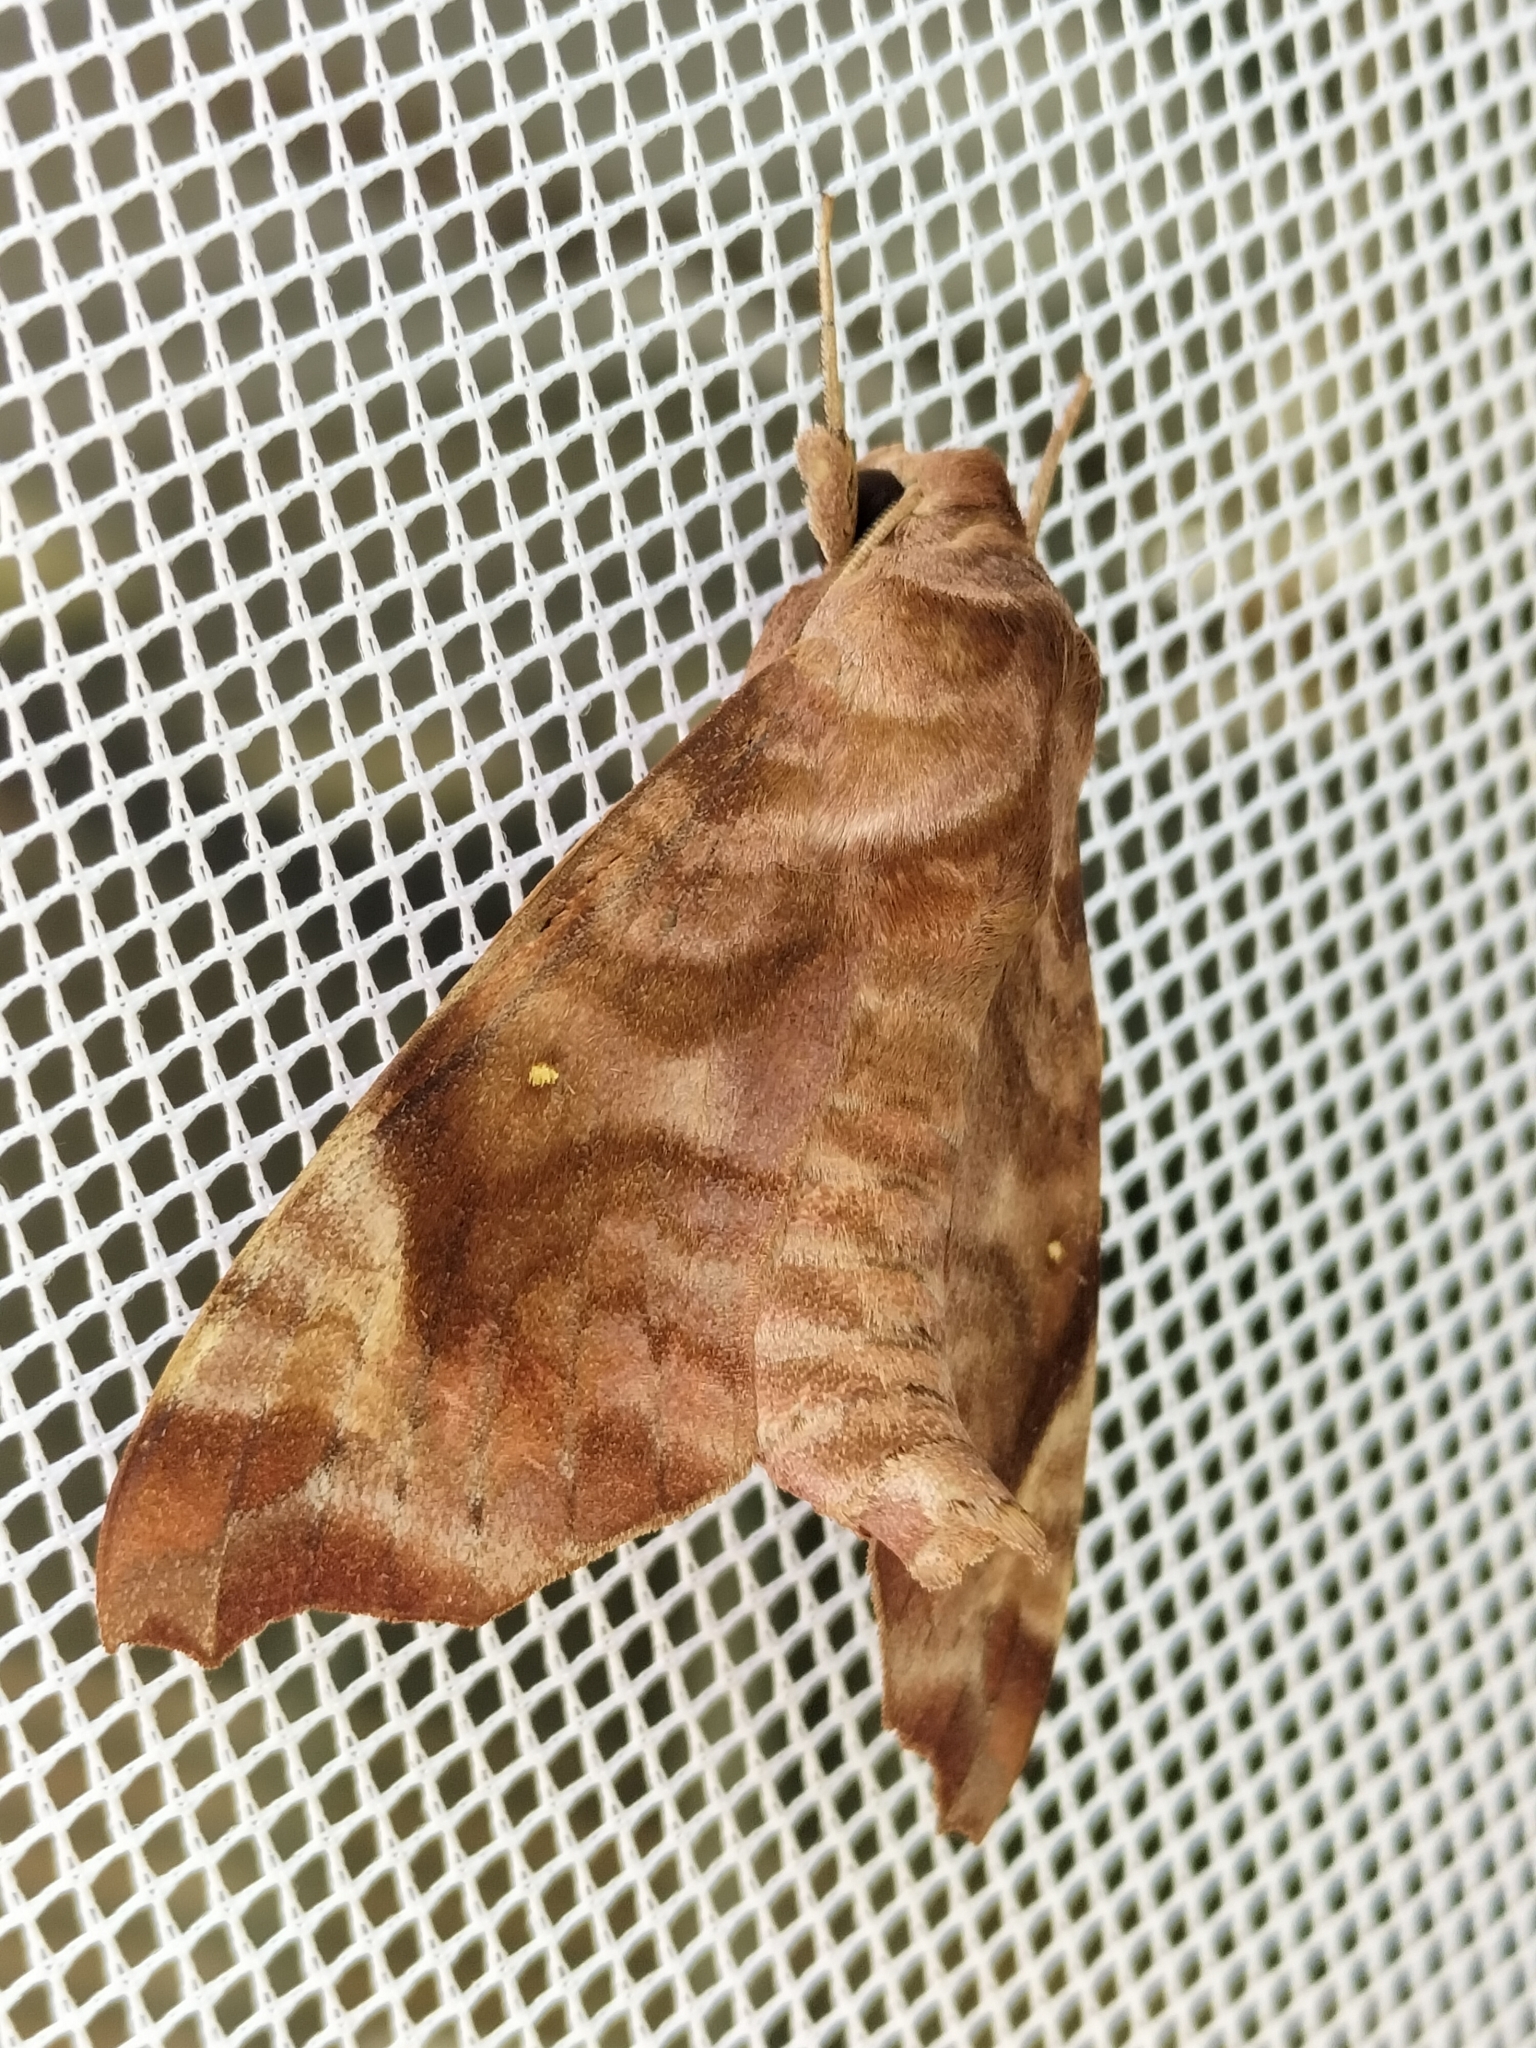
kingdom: Animalia
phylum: Arthropoda
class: Insecta
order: Lepidoptera
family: Sphingidae
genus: Acosmeryx
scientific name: Acosmeryx cinnamomea
